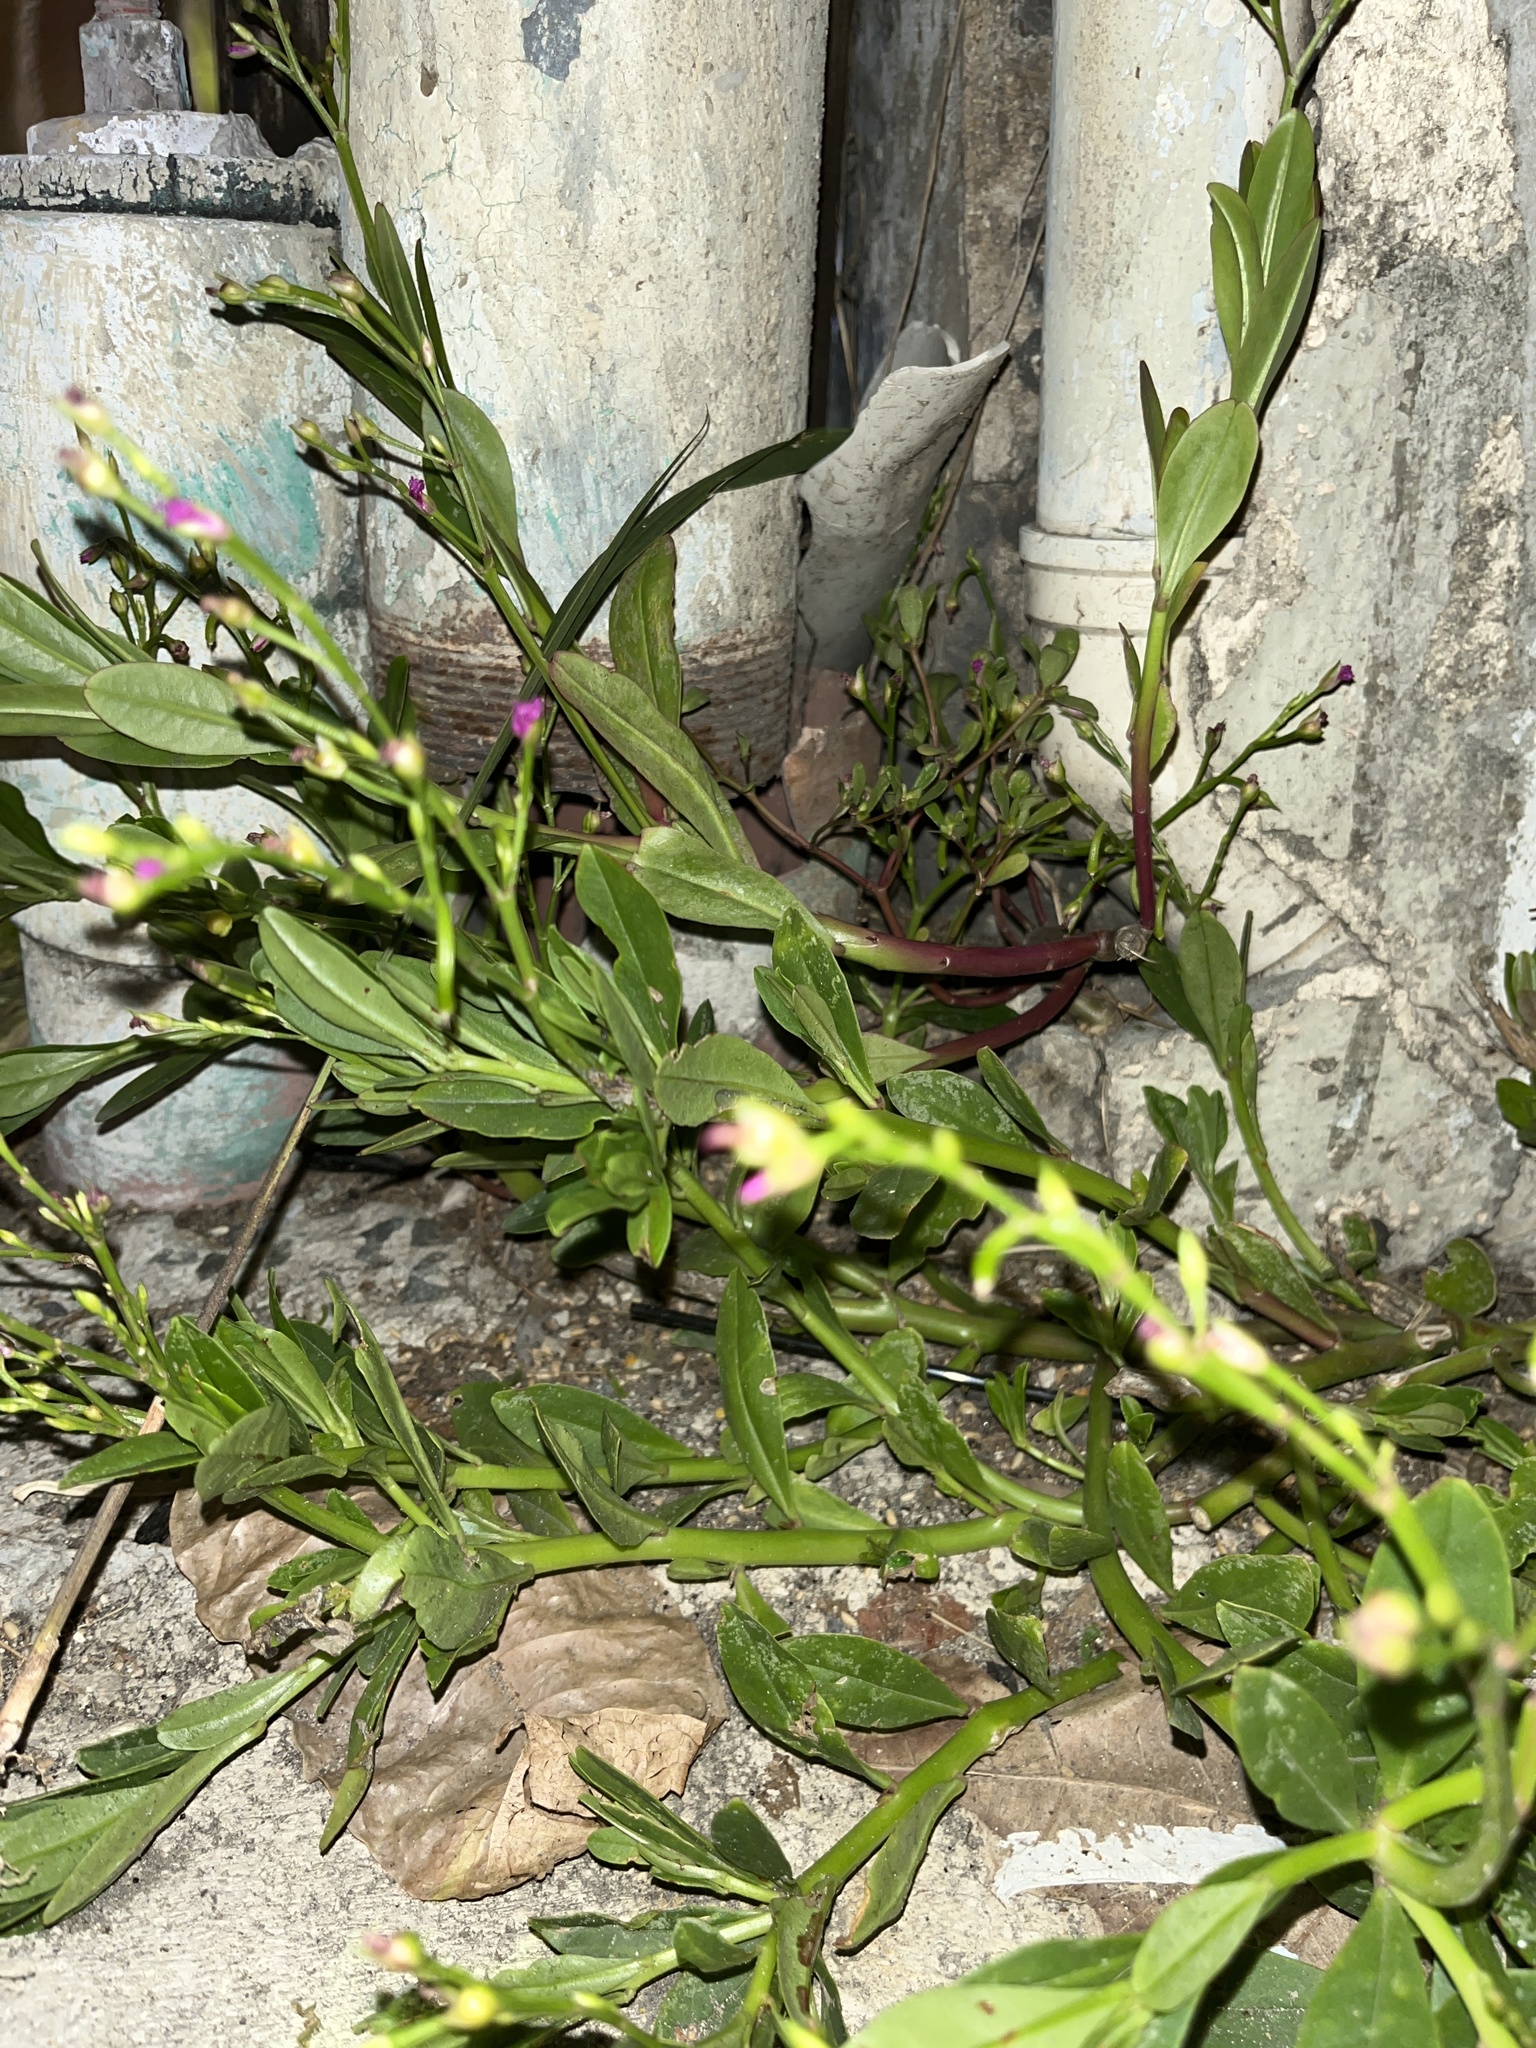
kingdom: Plantae
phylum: Tracheophyta
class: Magnoliopsida
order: Caryophyllales
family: Talinaceae
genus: Talinum
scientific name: Talinum fruticosum
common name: Verdolaga-francesa
